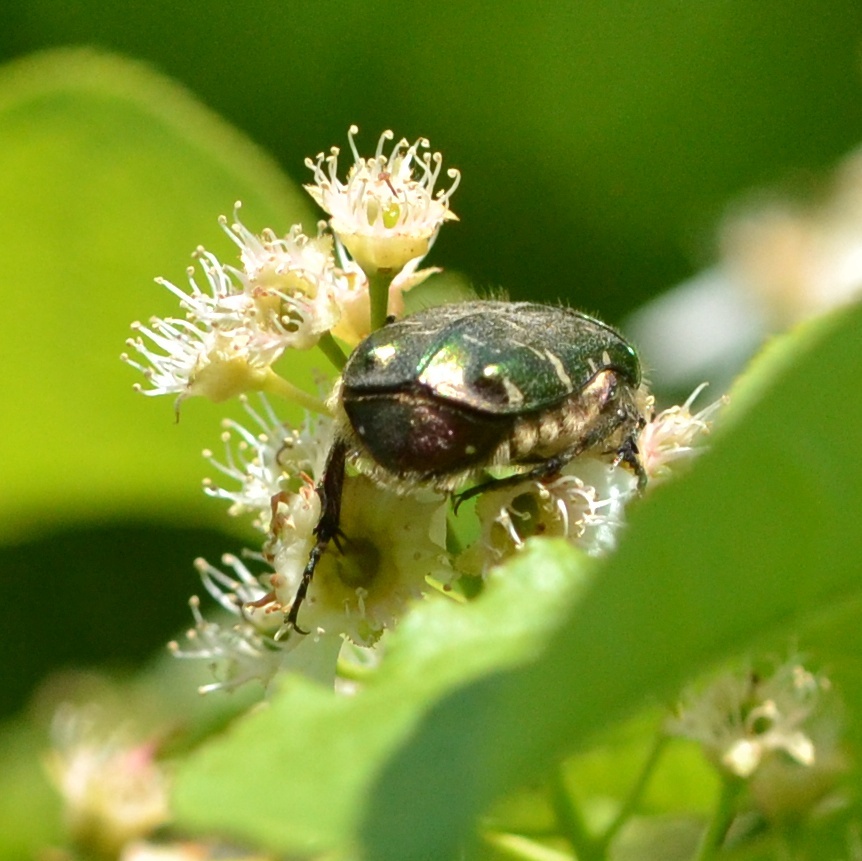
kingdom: Animalia
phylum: Arthropoda
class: Insecta
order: Coleoptera
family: Scarabaeidae
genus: Cetonia
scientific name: Cetonia aurata
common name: Rose chafer
